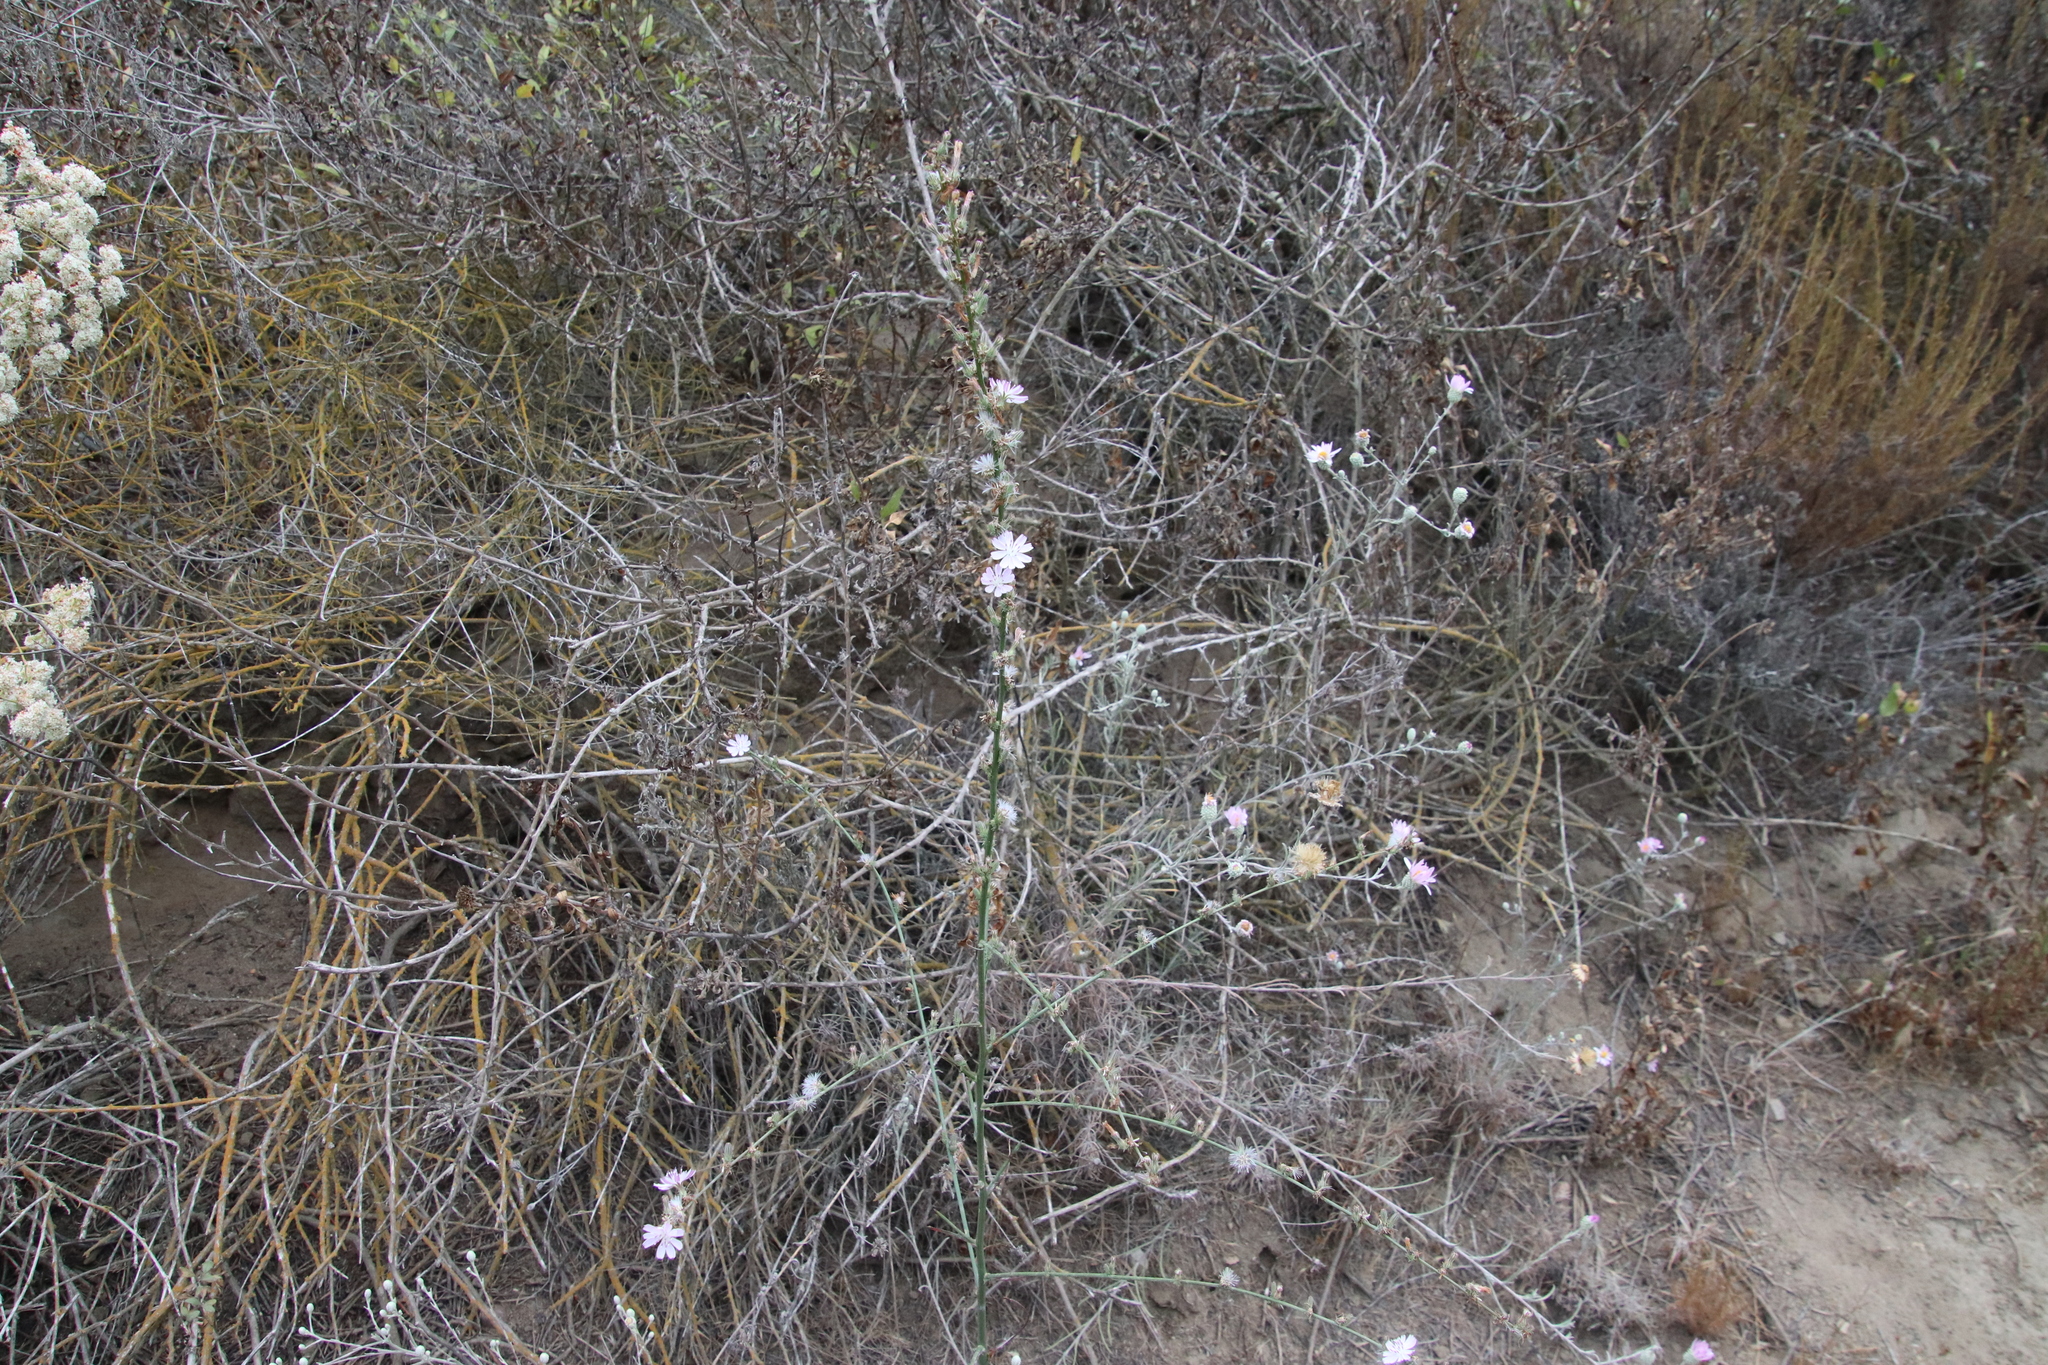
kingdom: Plantae
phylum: Tracheophyta
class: Magnoliopsida
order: Asterales
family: Asteraceae
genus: Stephanomeria
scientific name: Stephanomeria diegensis
